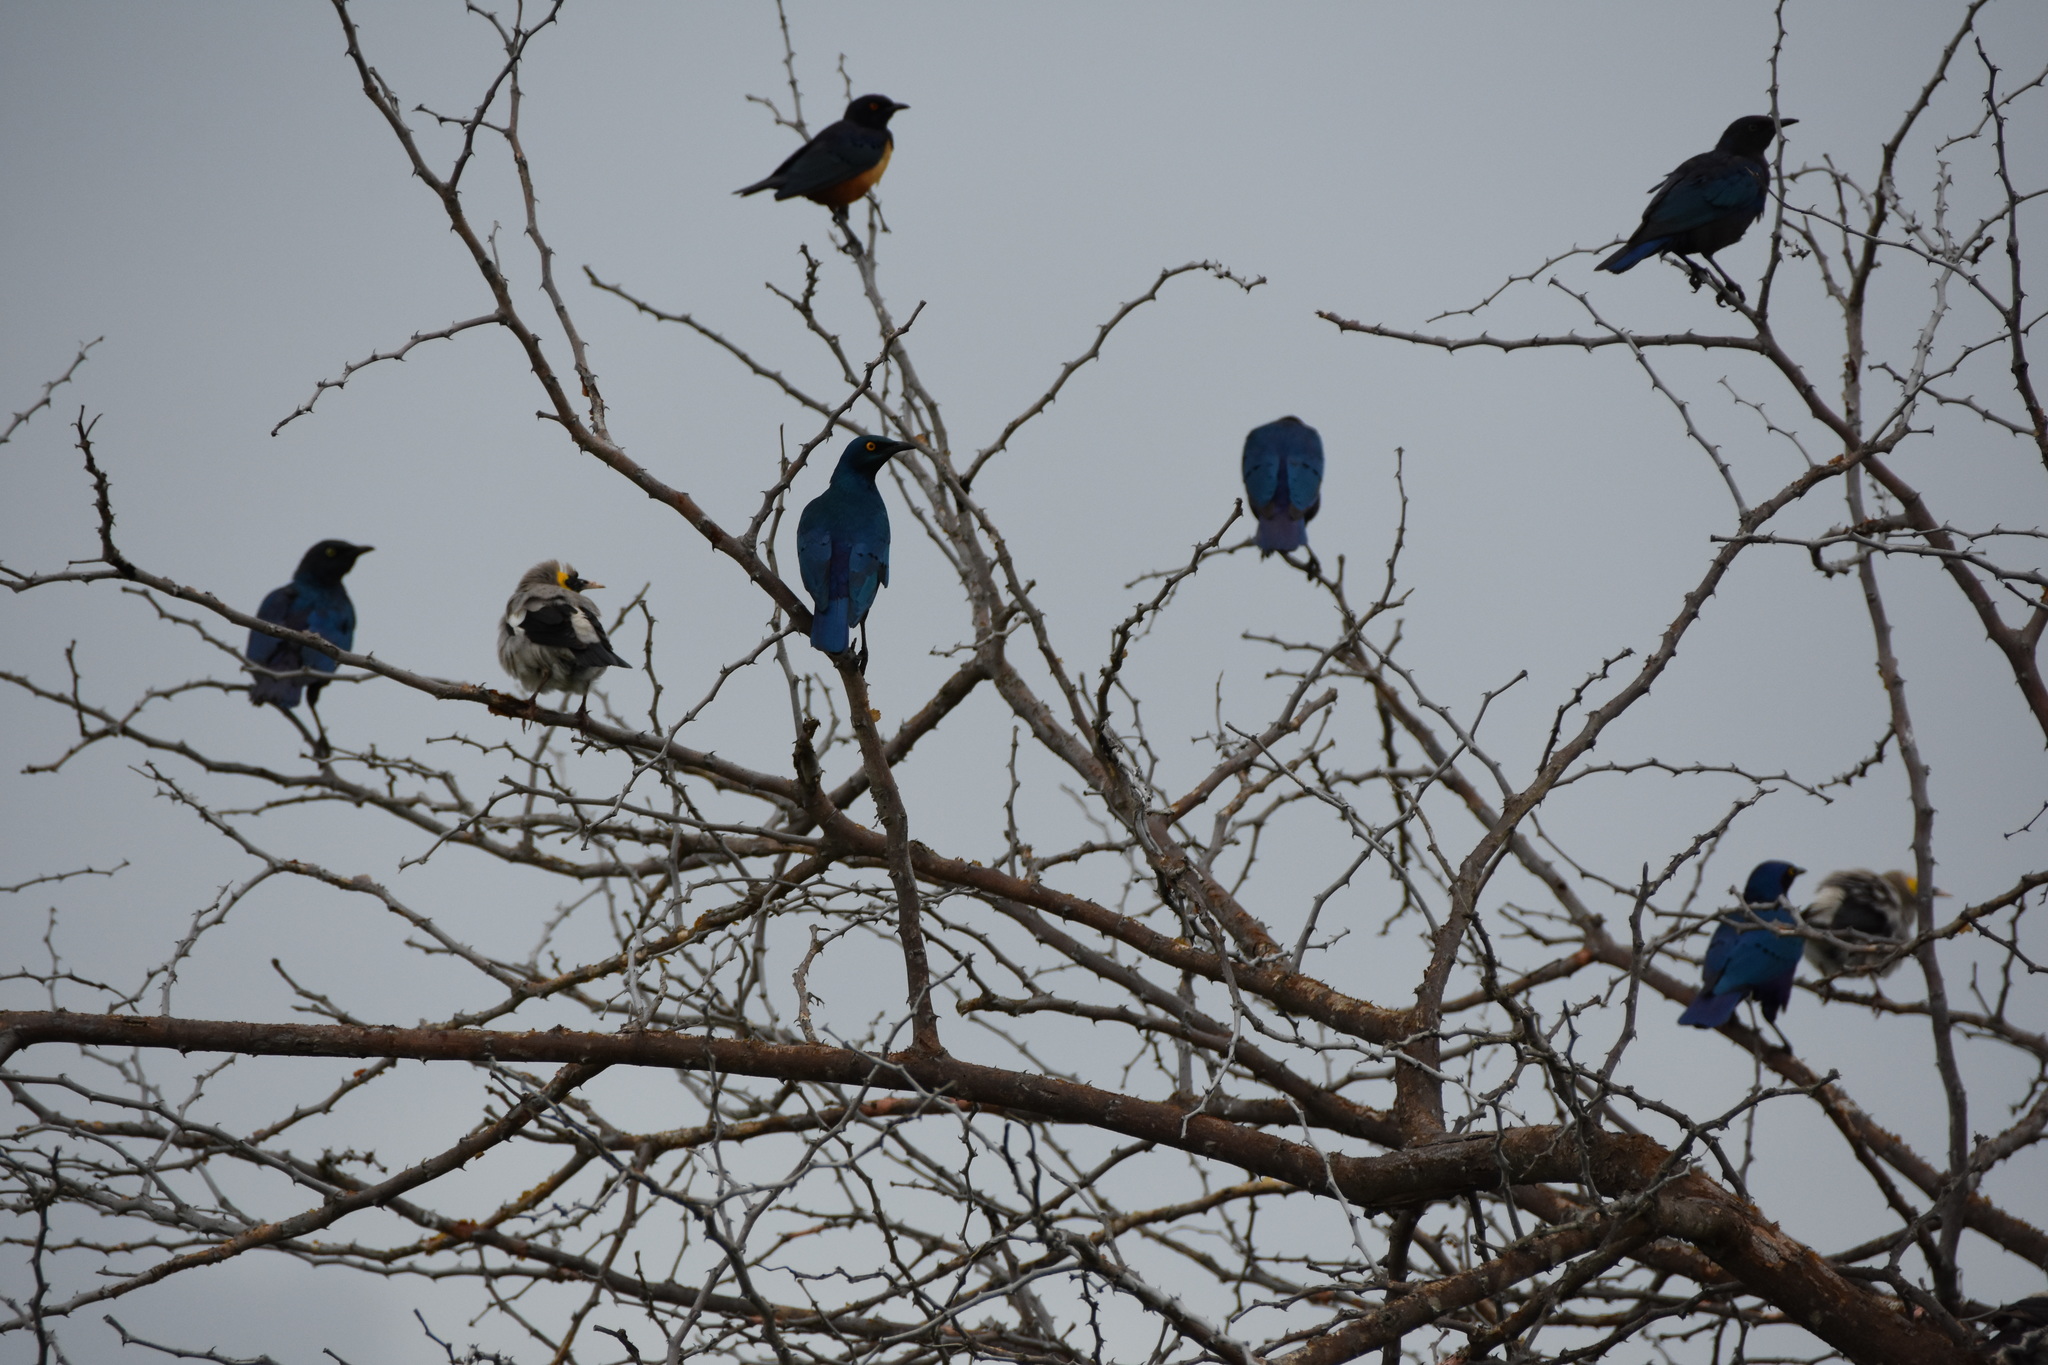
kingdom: Animalia
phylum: Chordata
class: Aves
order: Passeriformes
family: Sturnidae
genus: Lamprotornis
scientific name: Lamprotornis chalybaeus
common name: Greater blue-eared starling
